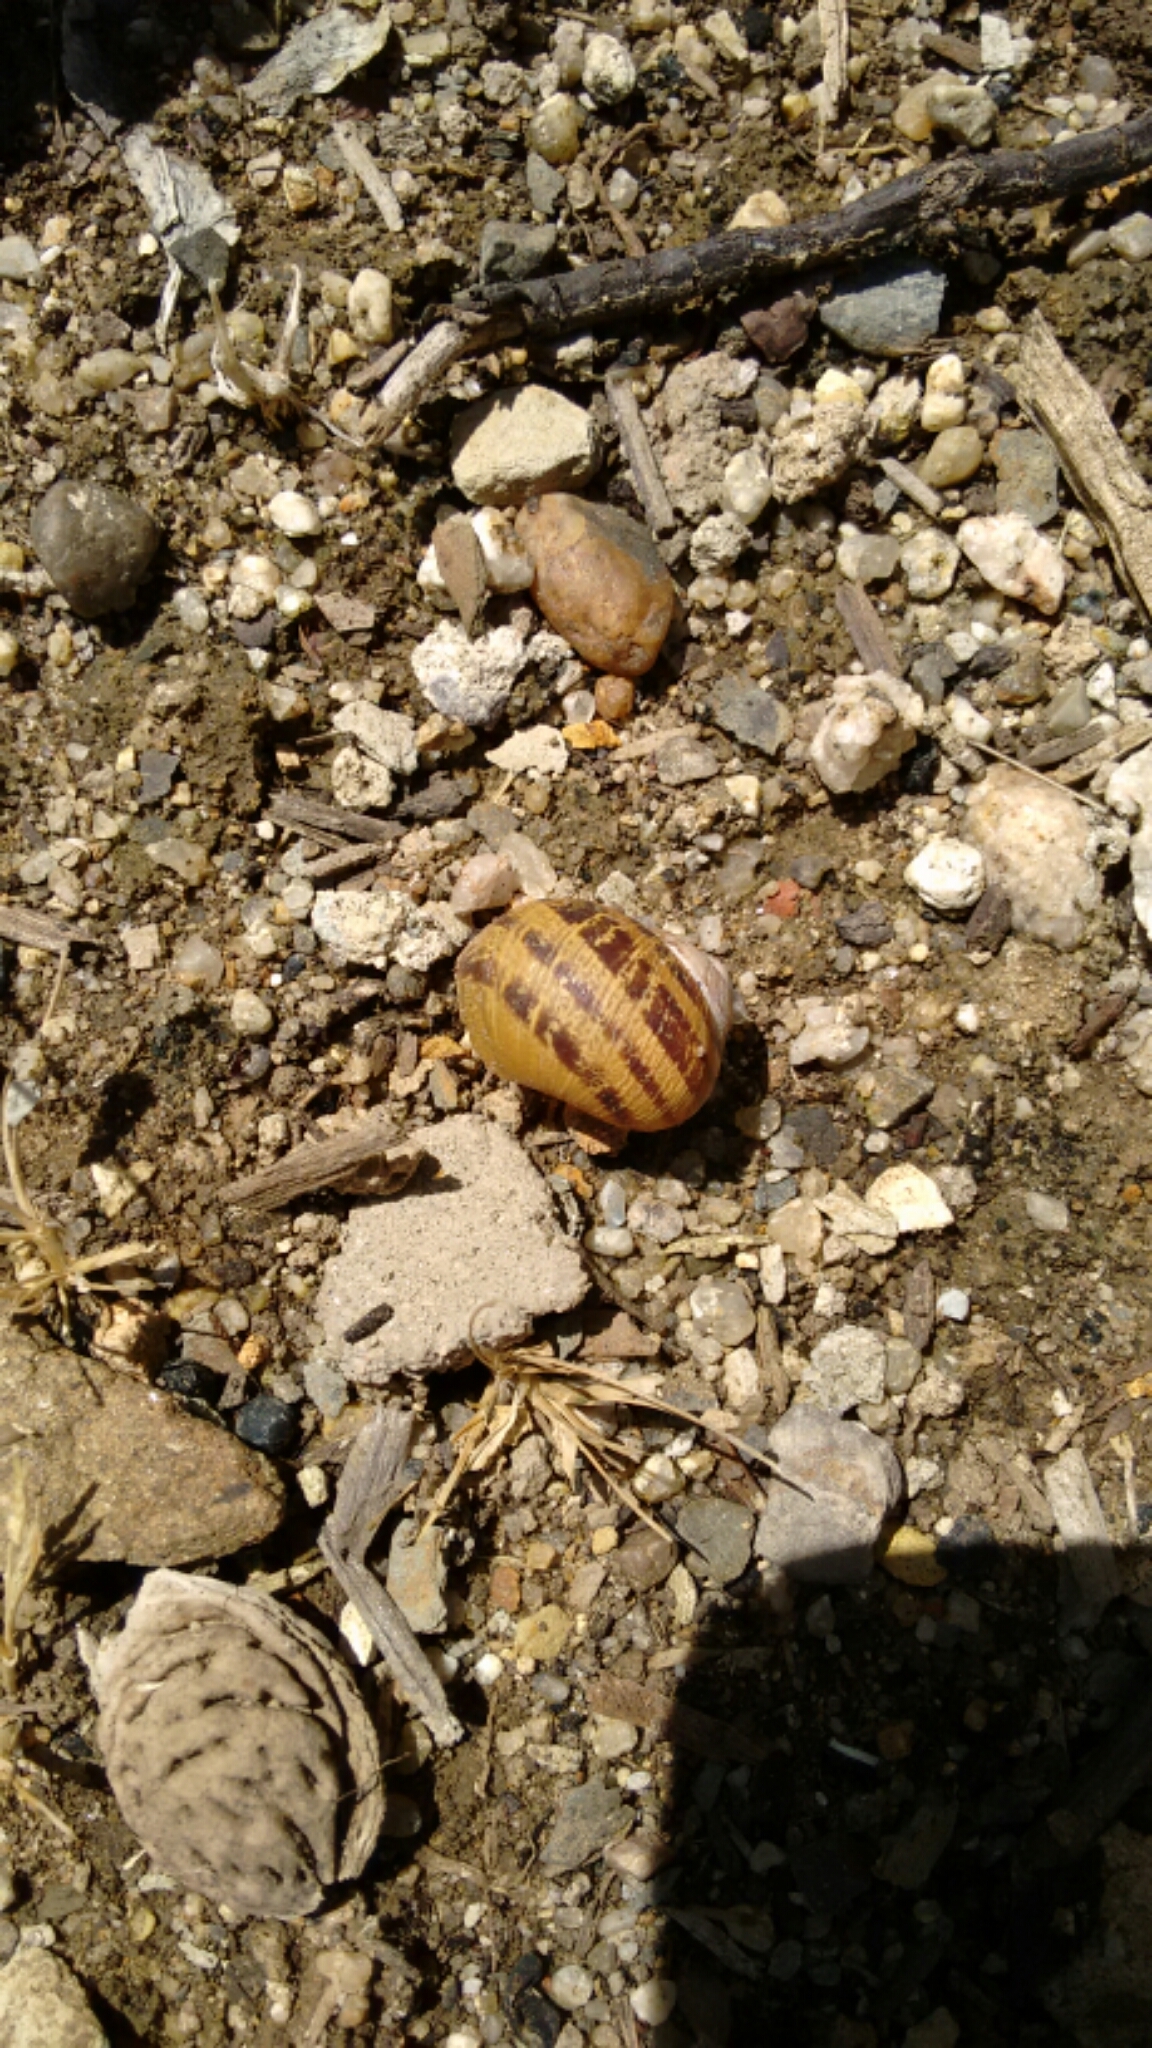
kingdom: Animalia
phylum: Mollusca
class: Gastropoda
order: Stylommatophora
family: Helicidae
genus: Cornu
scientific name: Cornu aspersum
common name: Brown garden snail
